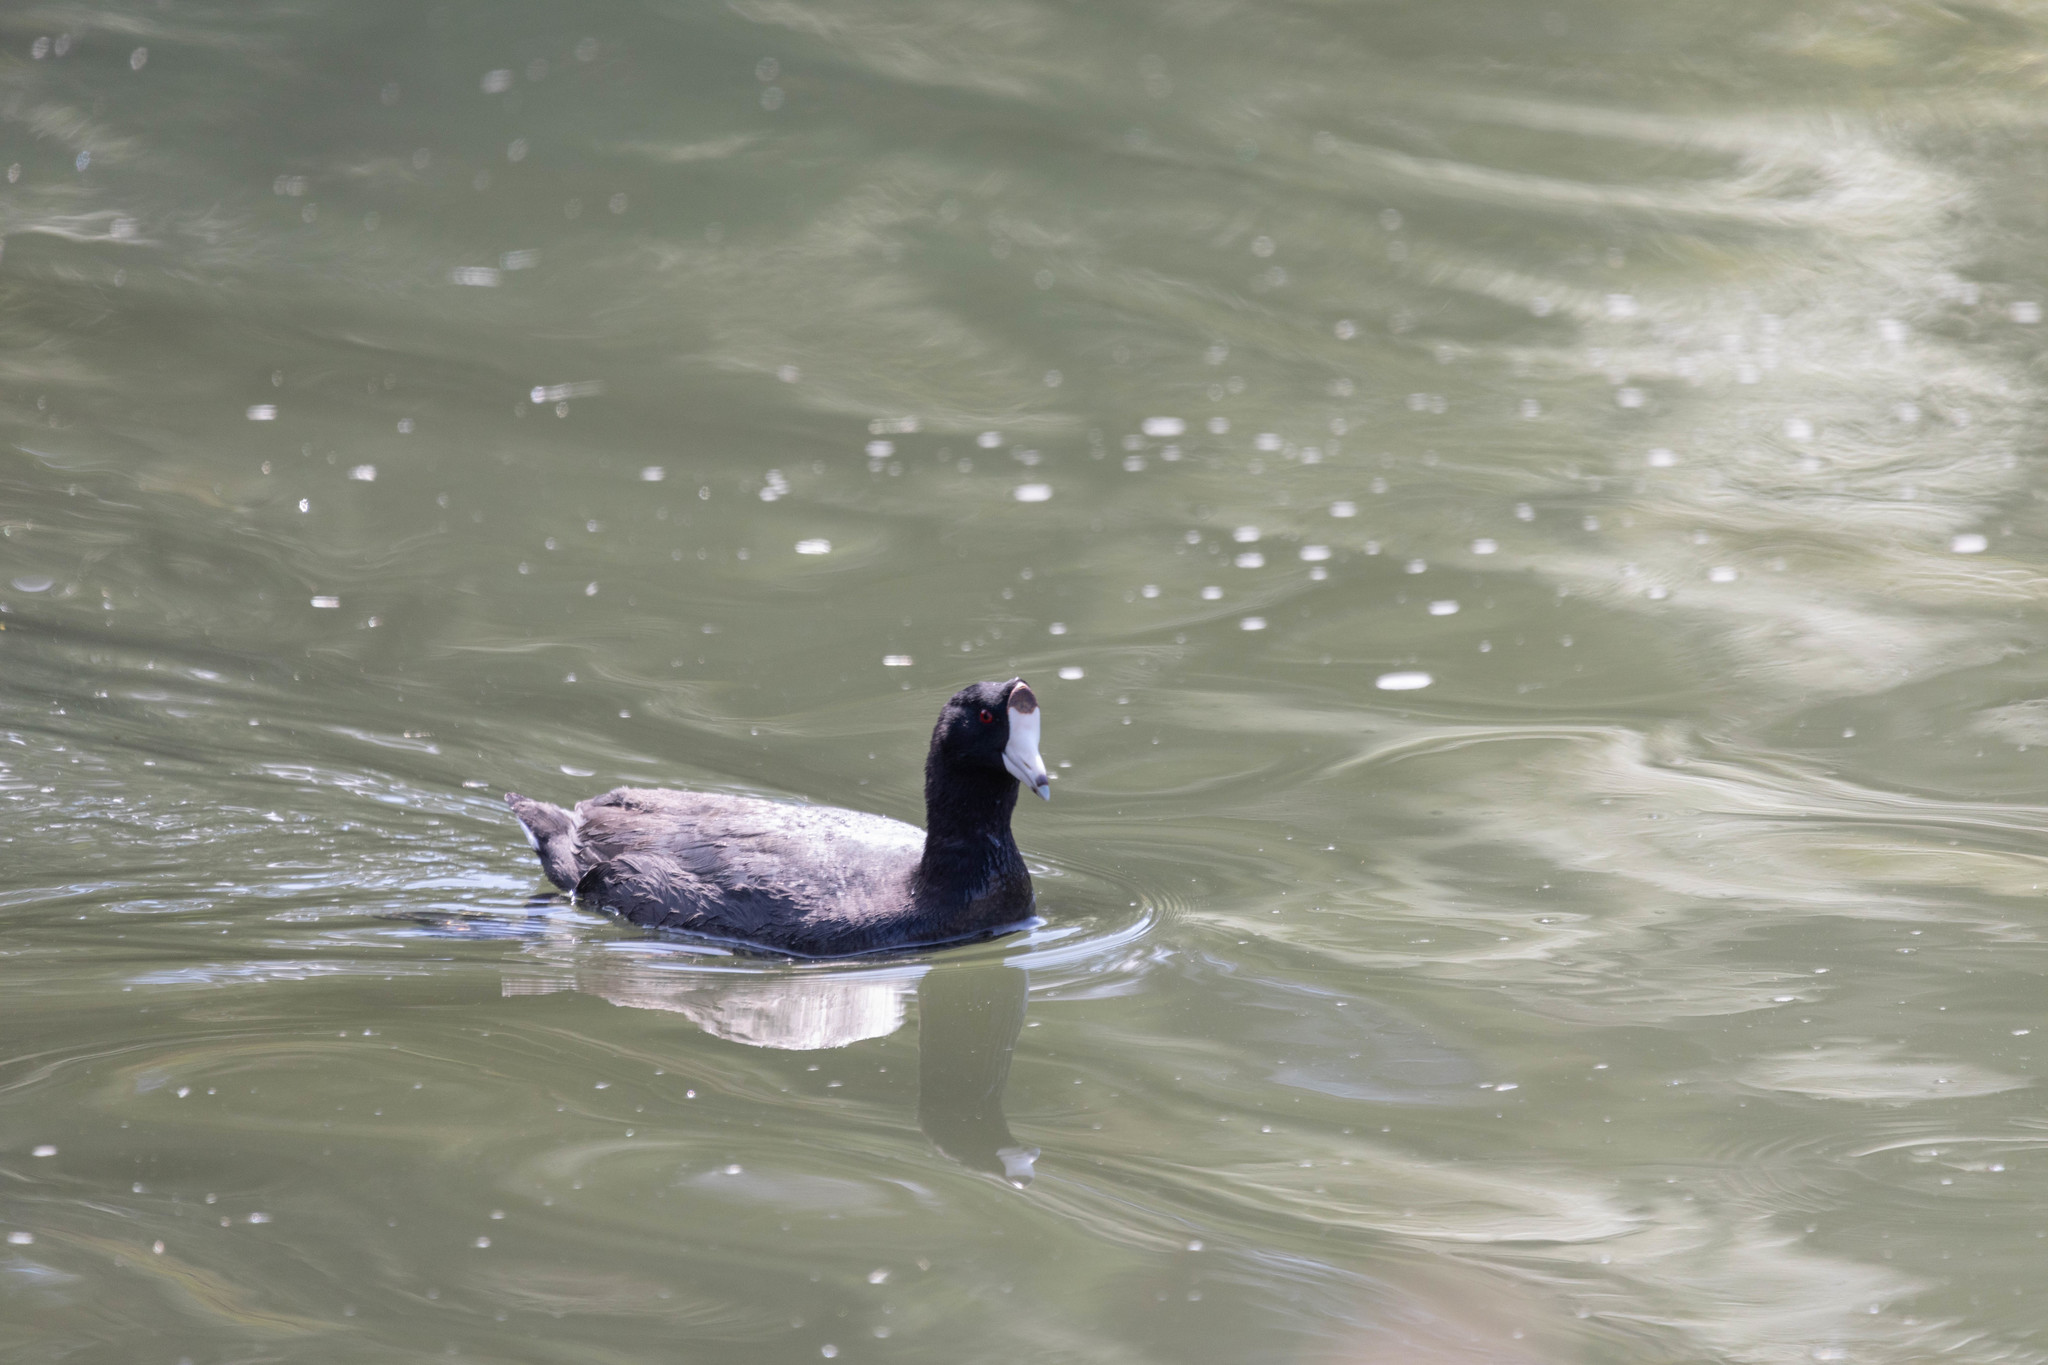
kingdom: Animalia
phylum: Chordata
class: Aves
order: Gruiformes
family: Rallidae
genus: Fulica
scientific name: Fulica americana
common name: American coot
